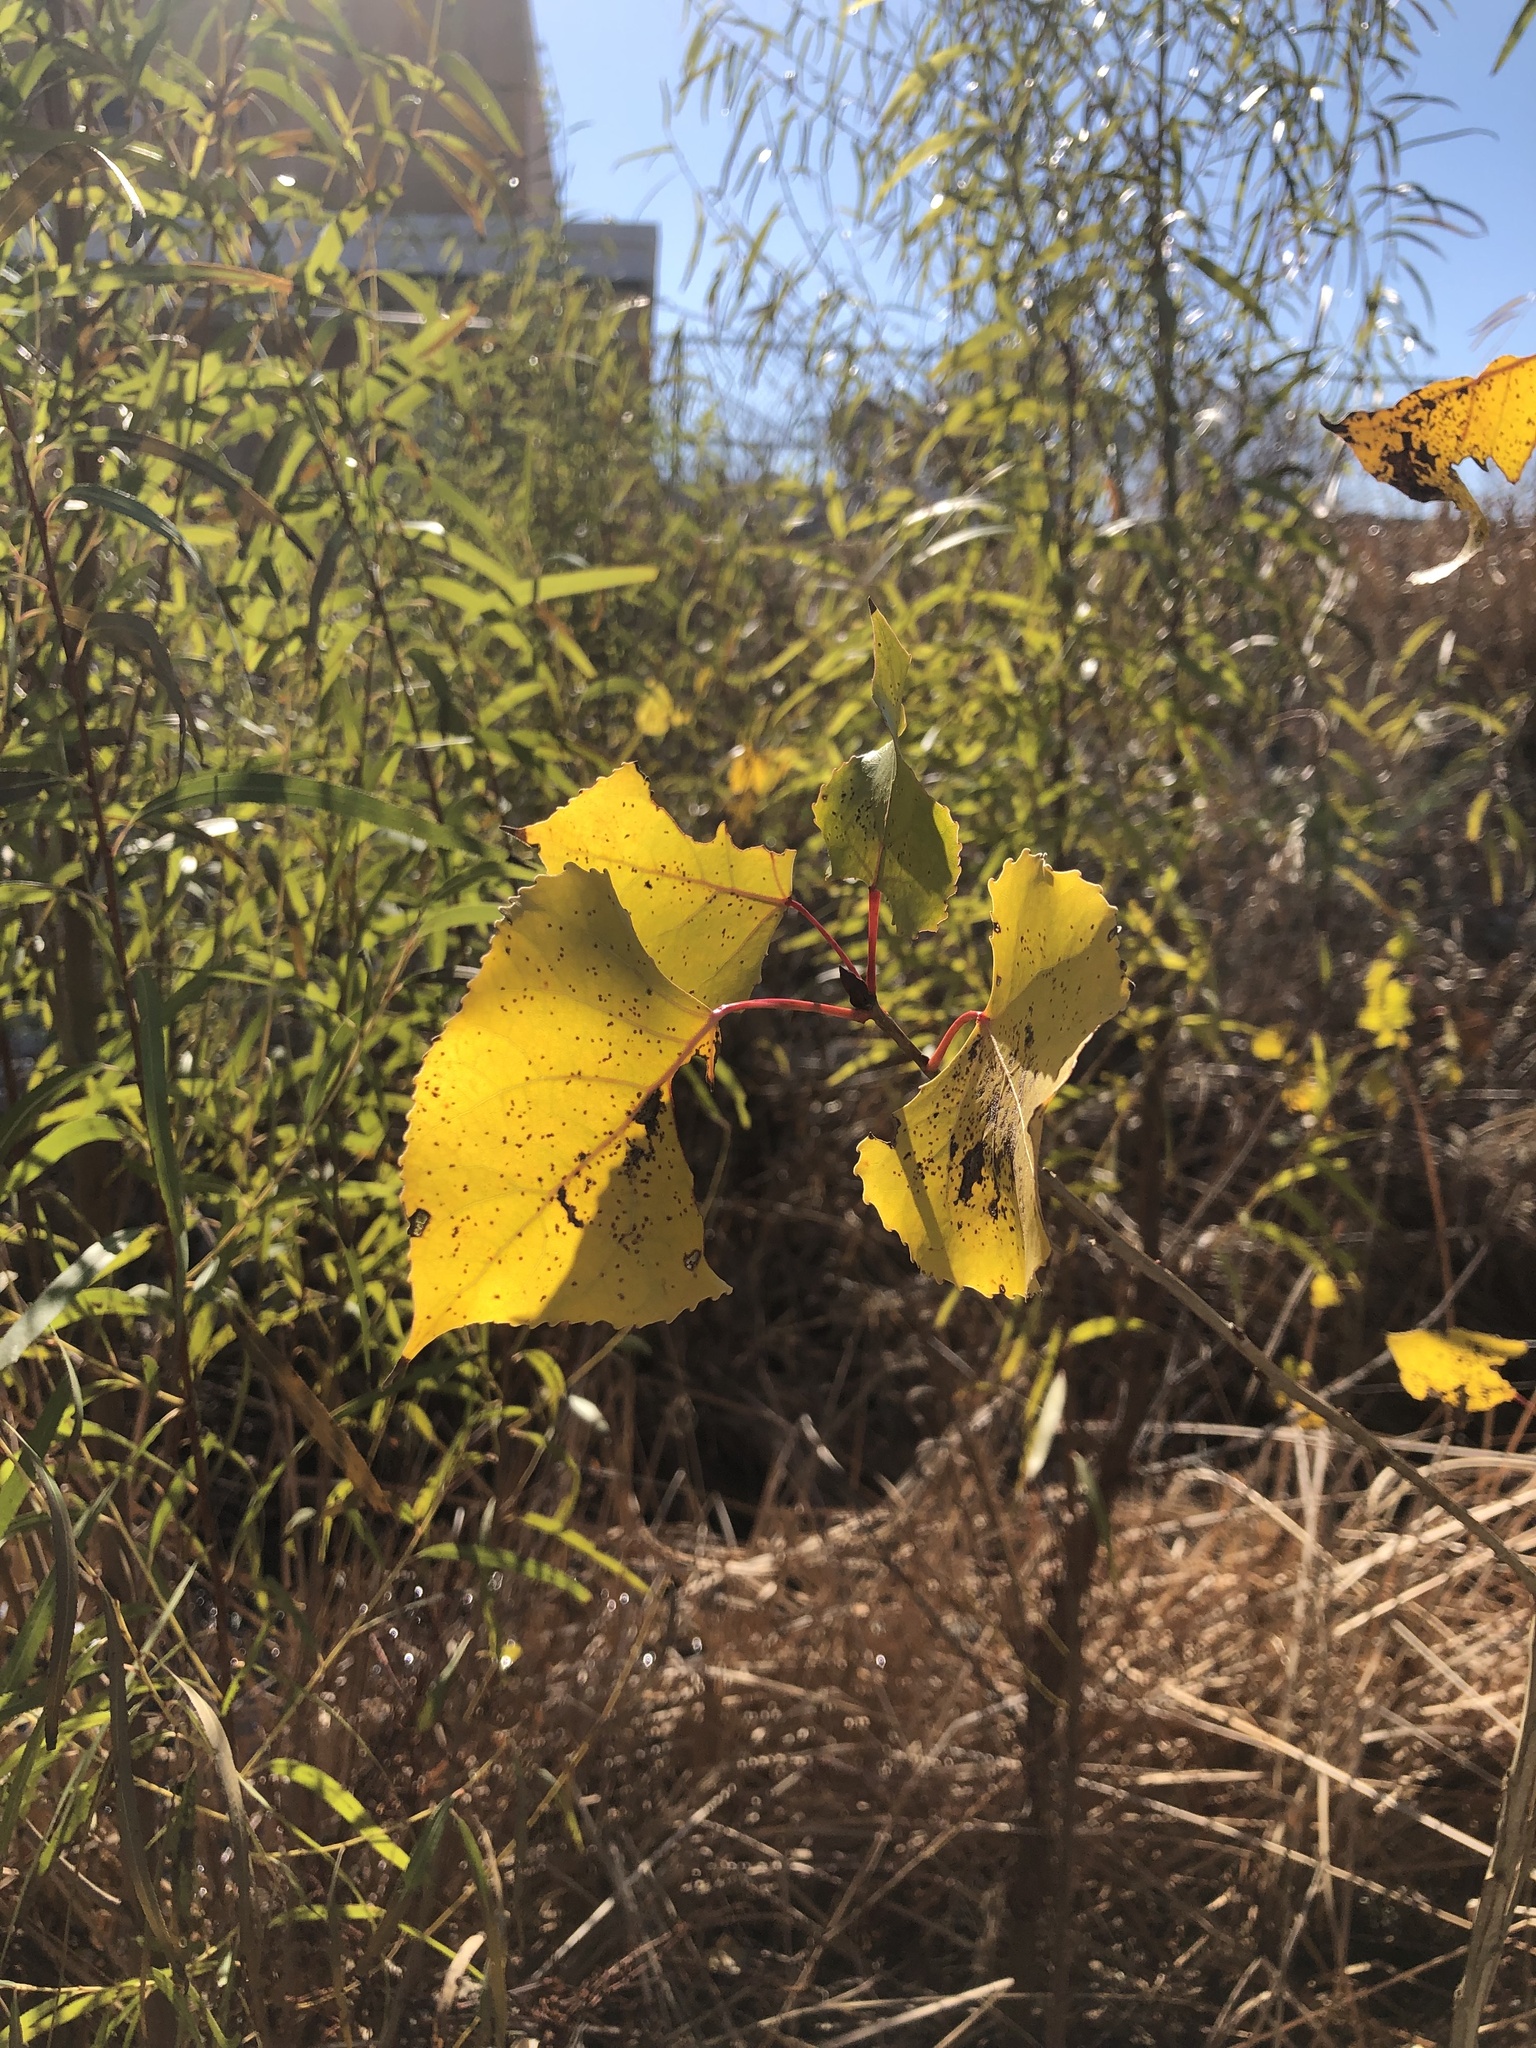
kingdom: Plantae
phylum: Tracheophyta
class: Magnoliopsida
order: Malpighiales
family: Salicaceae
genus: Populus
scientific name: Populus deltoides
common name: Eastern cottonwood
